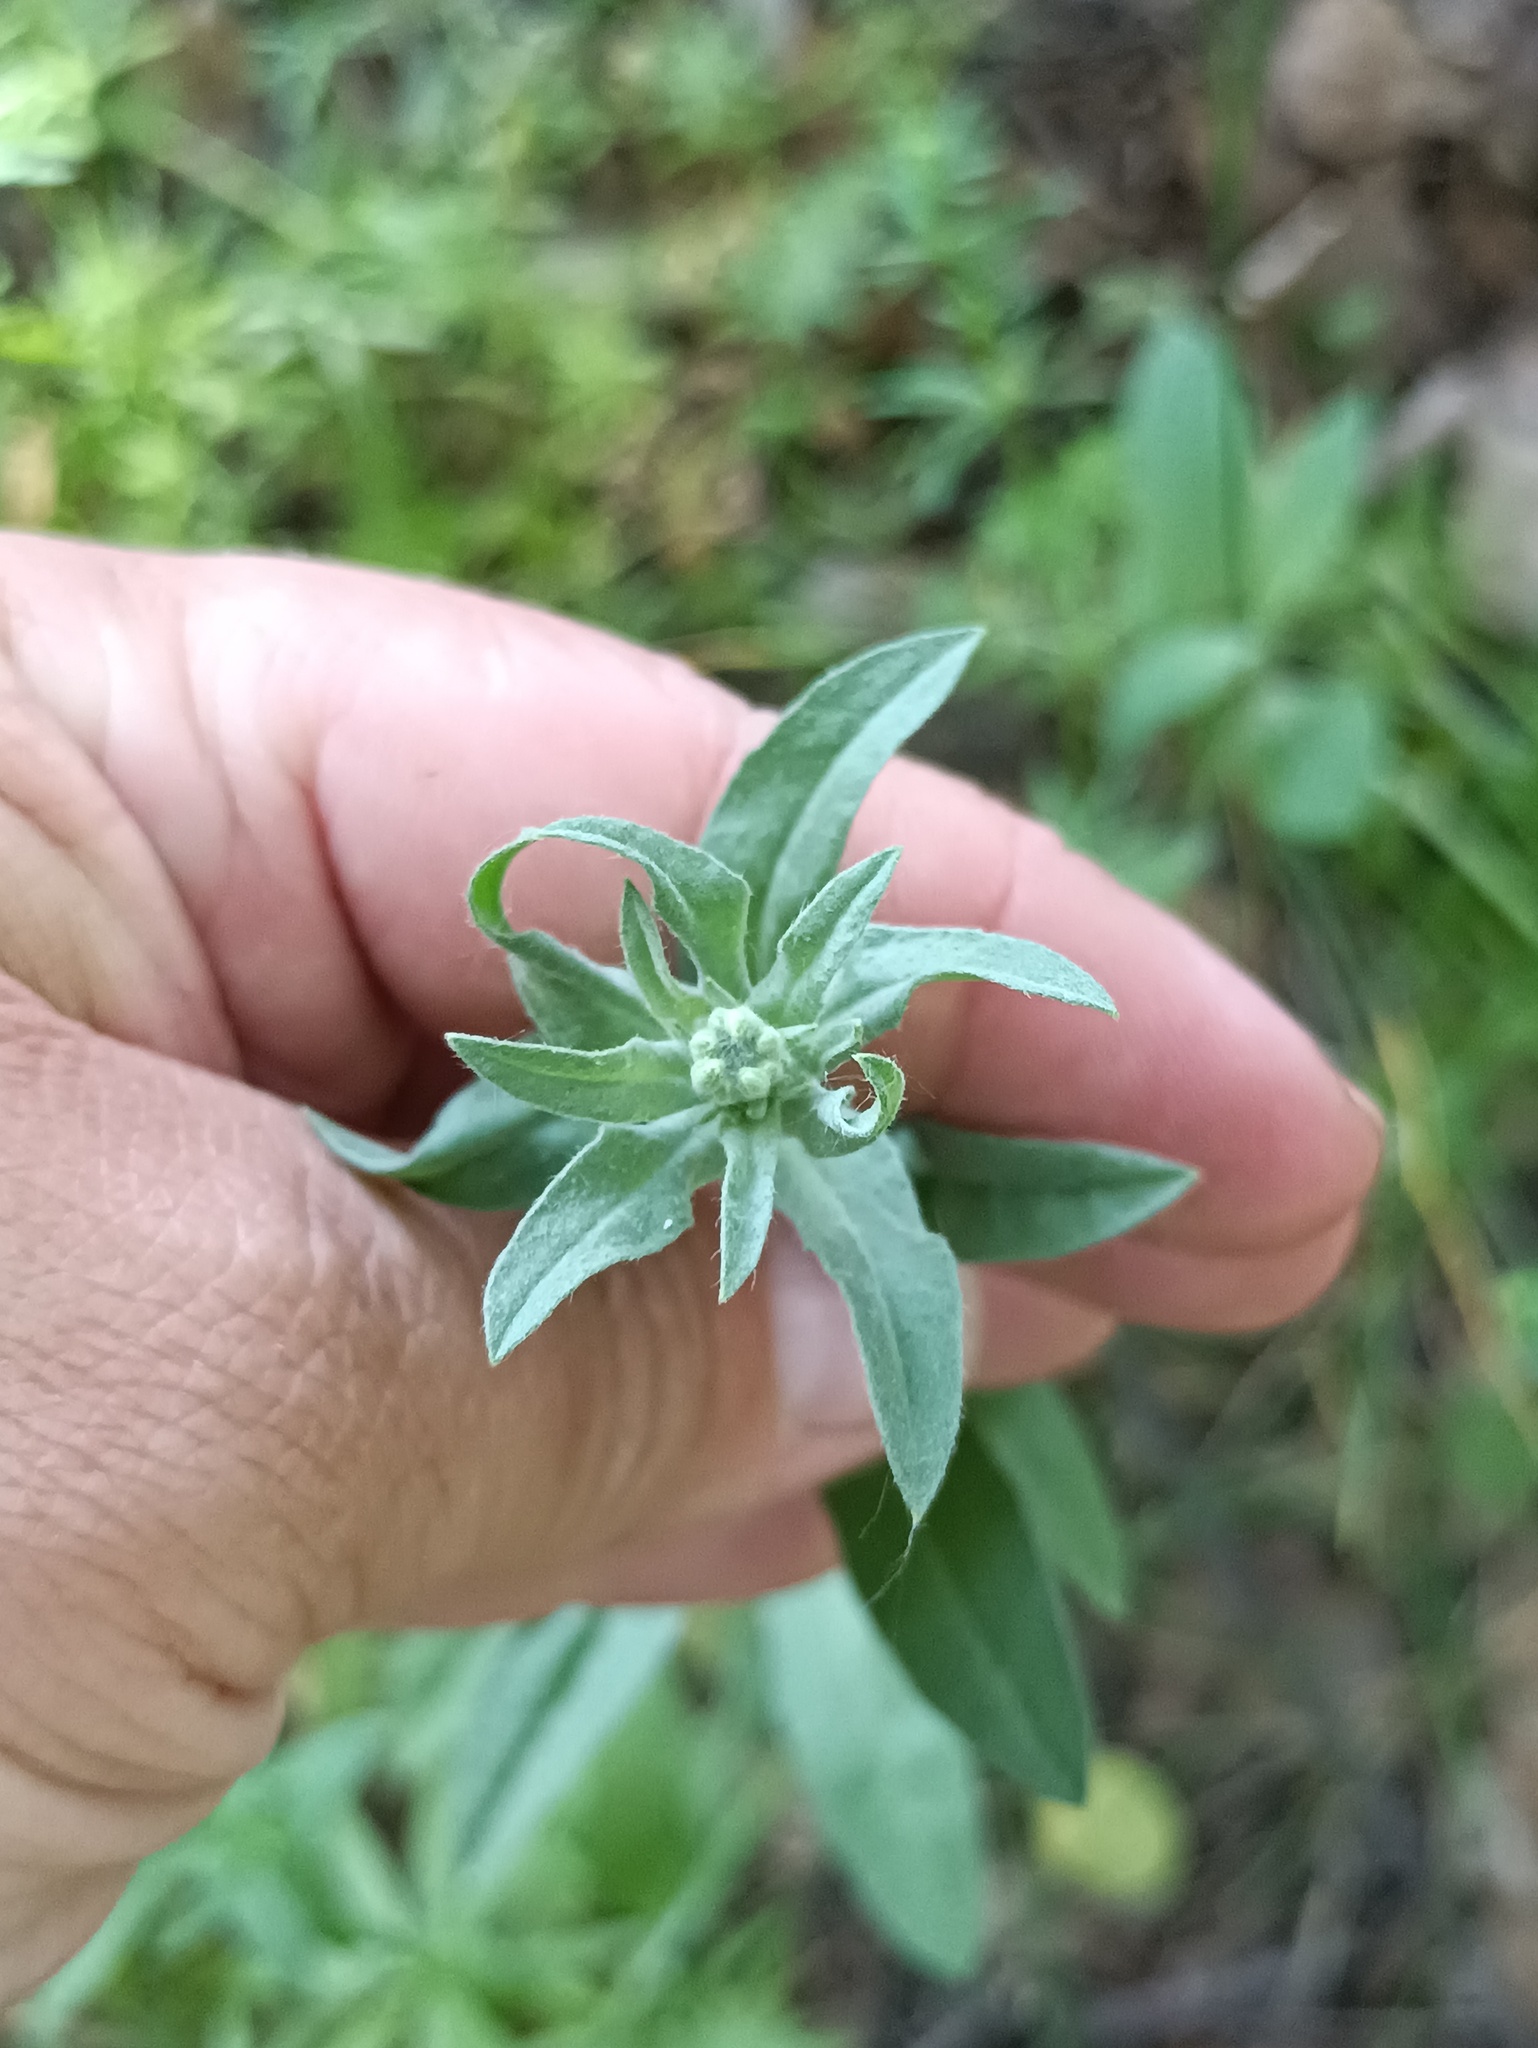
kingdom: Plantae
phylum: Tracheophyta
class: Magnoliopsida
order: Brassicales
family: Brassicaceae
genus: Berteroa
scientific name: Berteroa incana
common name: Hoary alison
